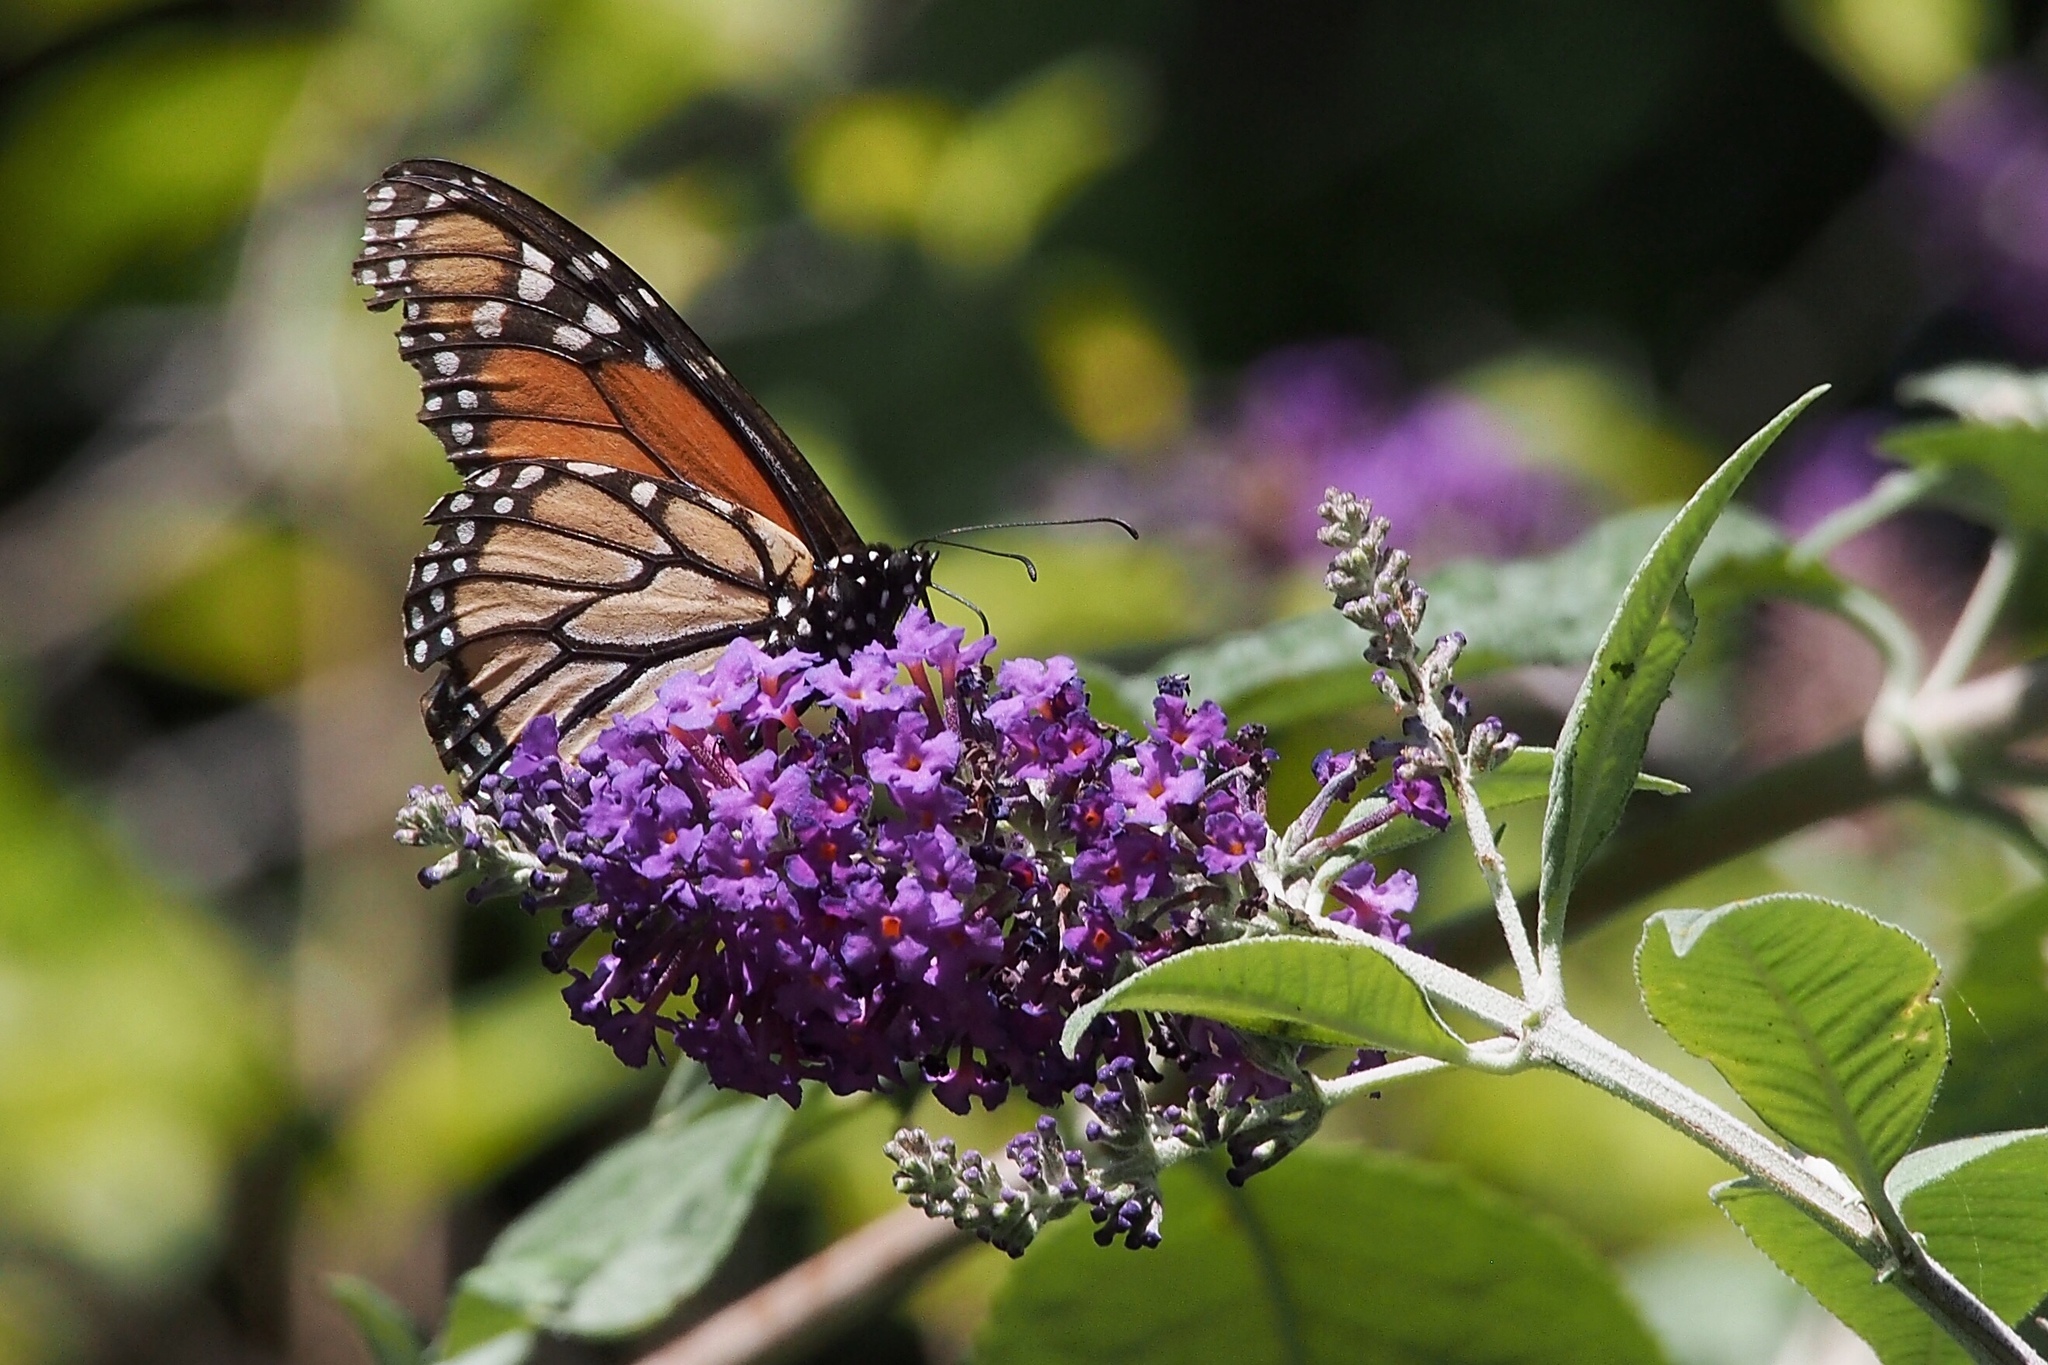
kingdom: Animalia
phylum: Arthropoda
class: Insecta
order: Lepidoptera
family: Nymphalidae
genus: Danaus
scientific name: Danaus plexippus
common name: Monarch
